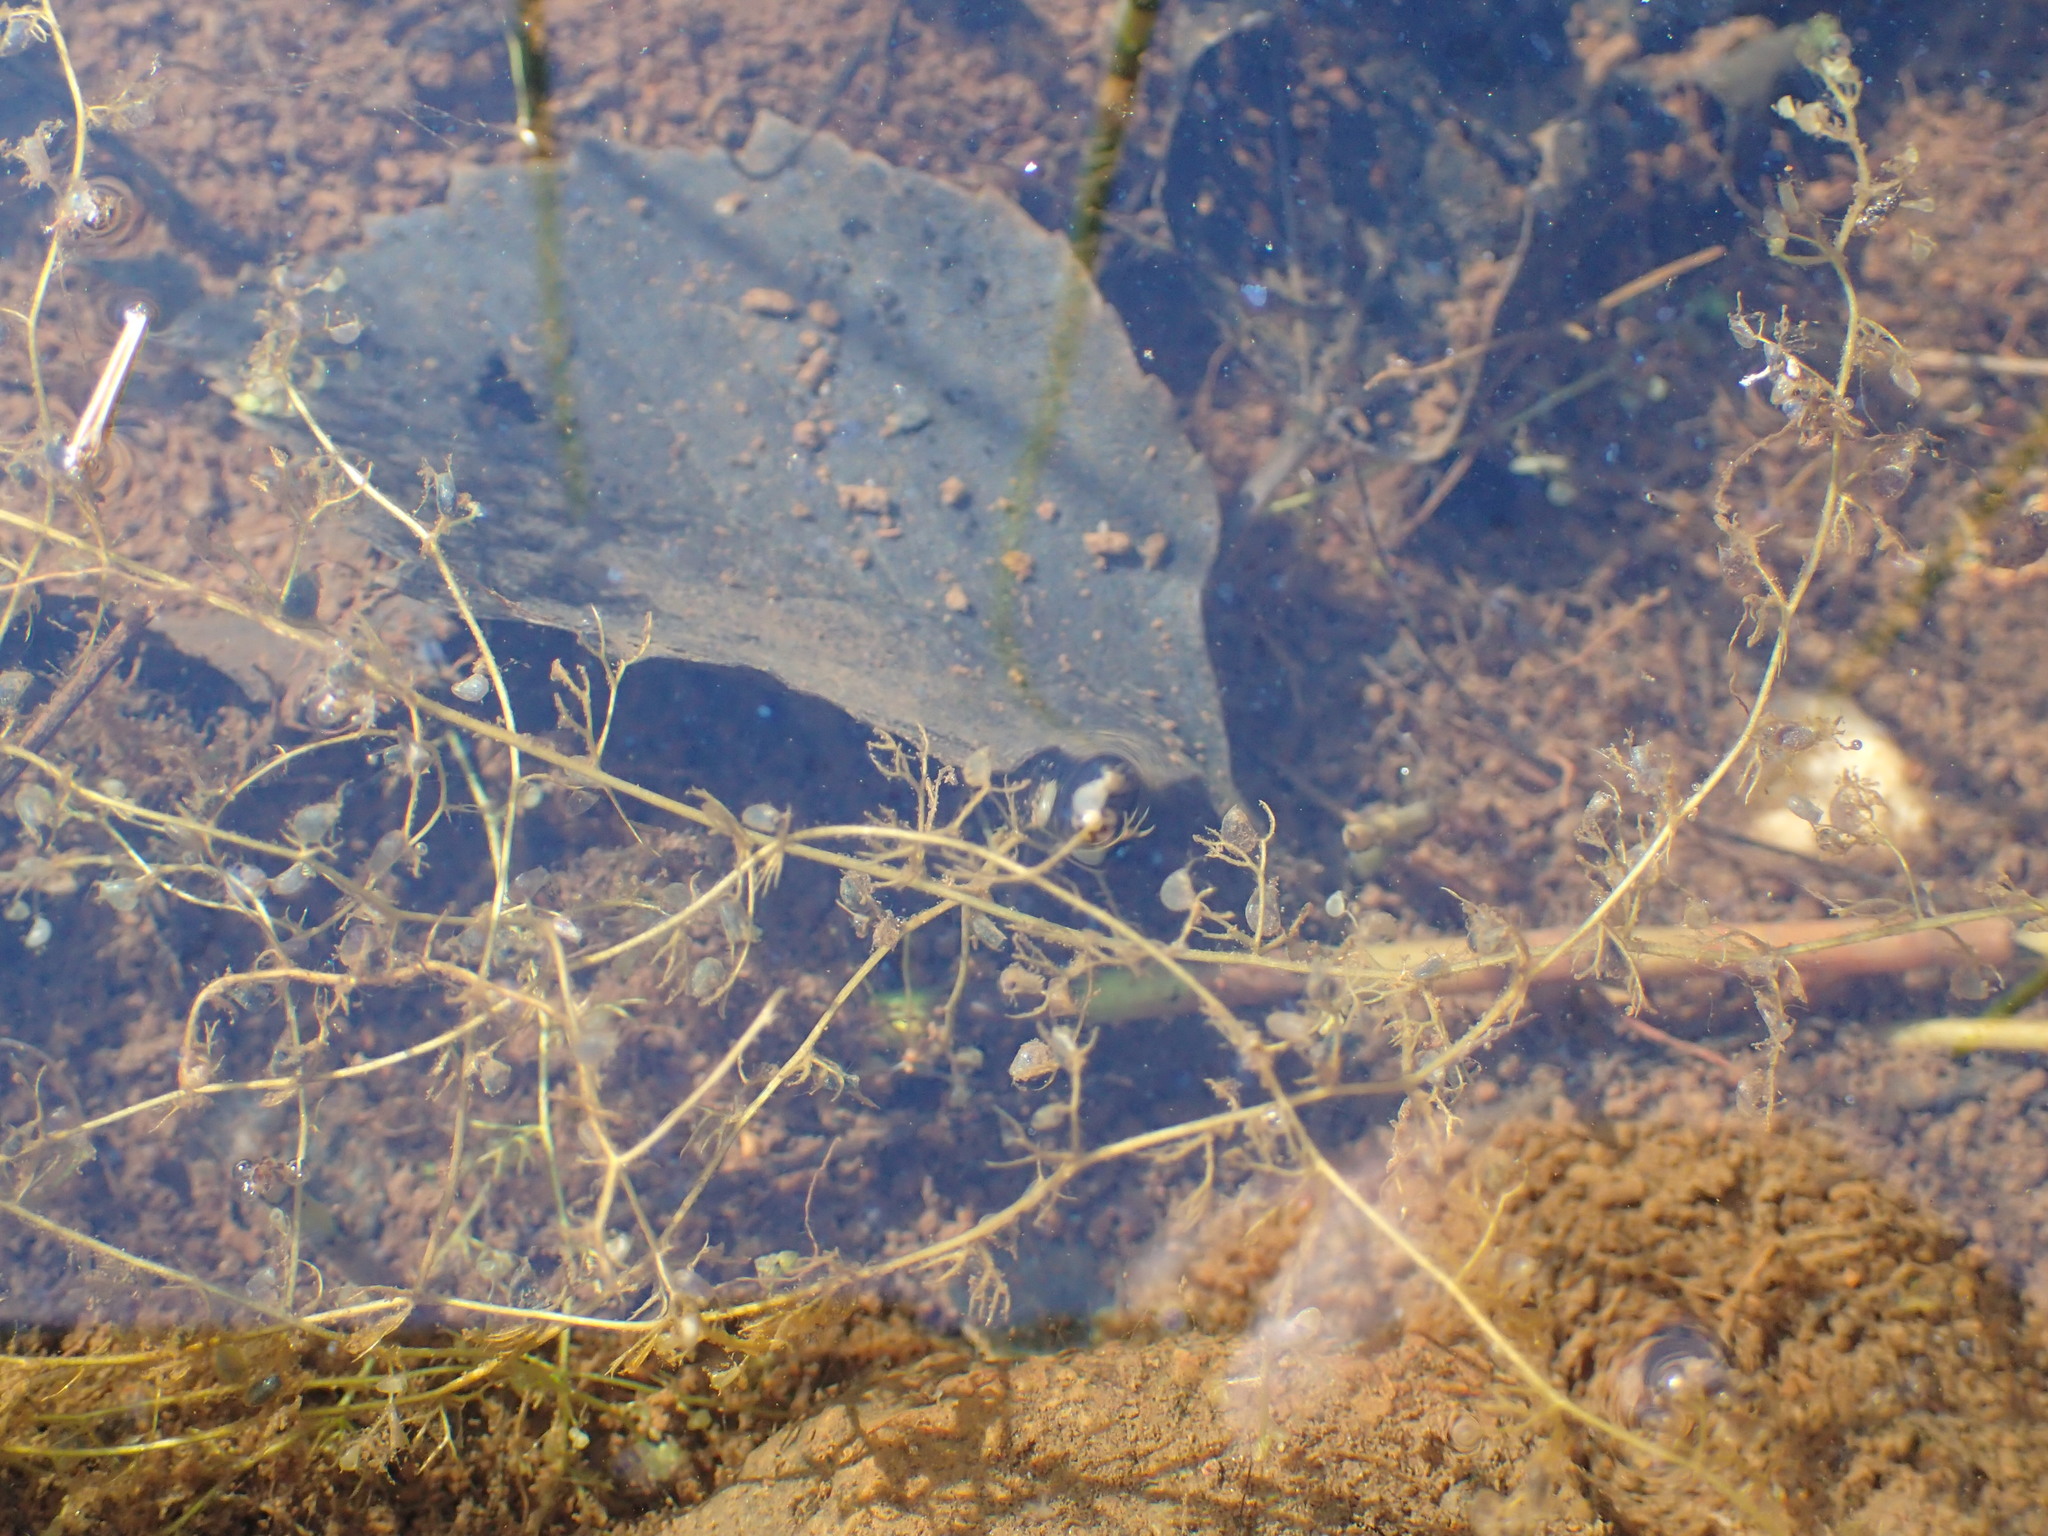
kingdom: Plantae
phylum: Tracheophyta
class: Magnoliopsida
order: Lamiales
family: Lentibulariaceae
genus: Utricularia
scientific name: Utricularia minor
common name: Lesser bladderwort
